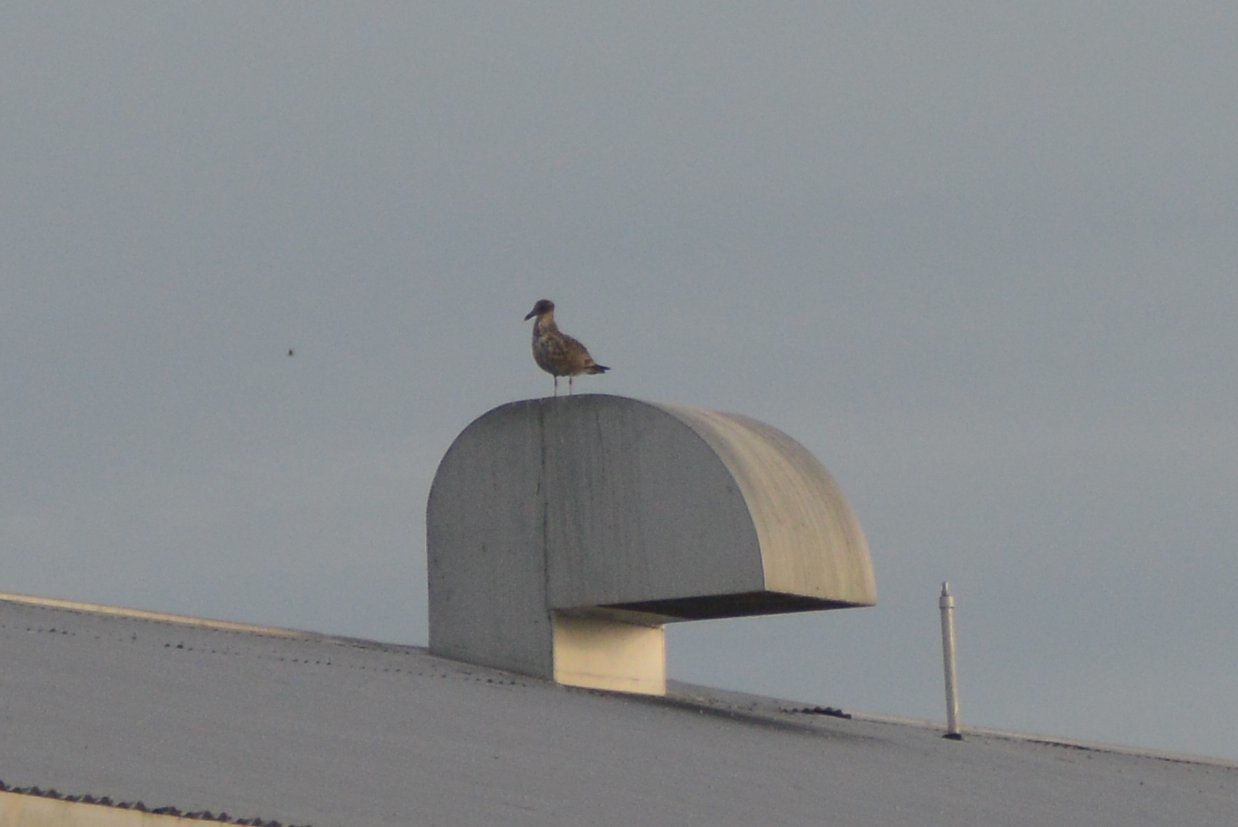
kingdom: Animalia
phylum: Chordata
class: Aves
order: Charadriiformes
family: Laridae
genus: Larus
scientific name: Larus dominicanus
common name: Kelp gull
